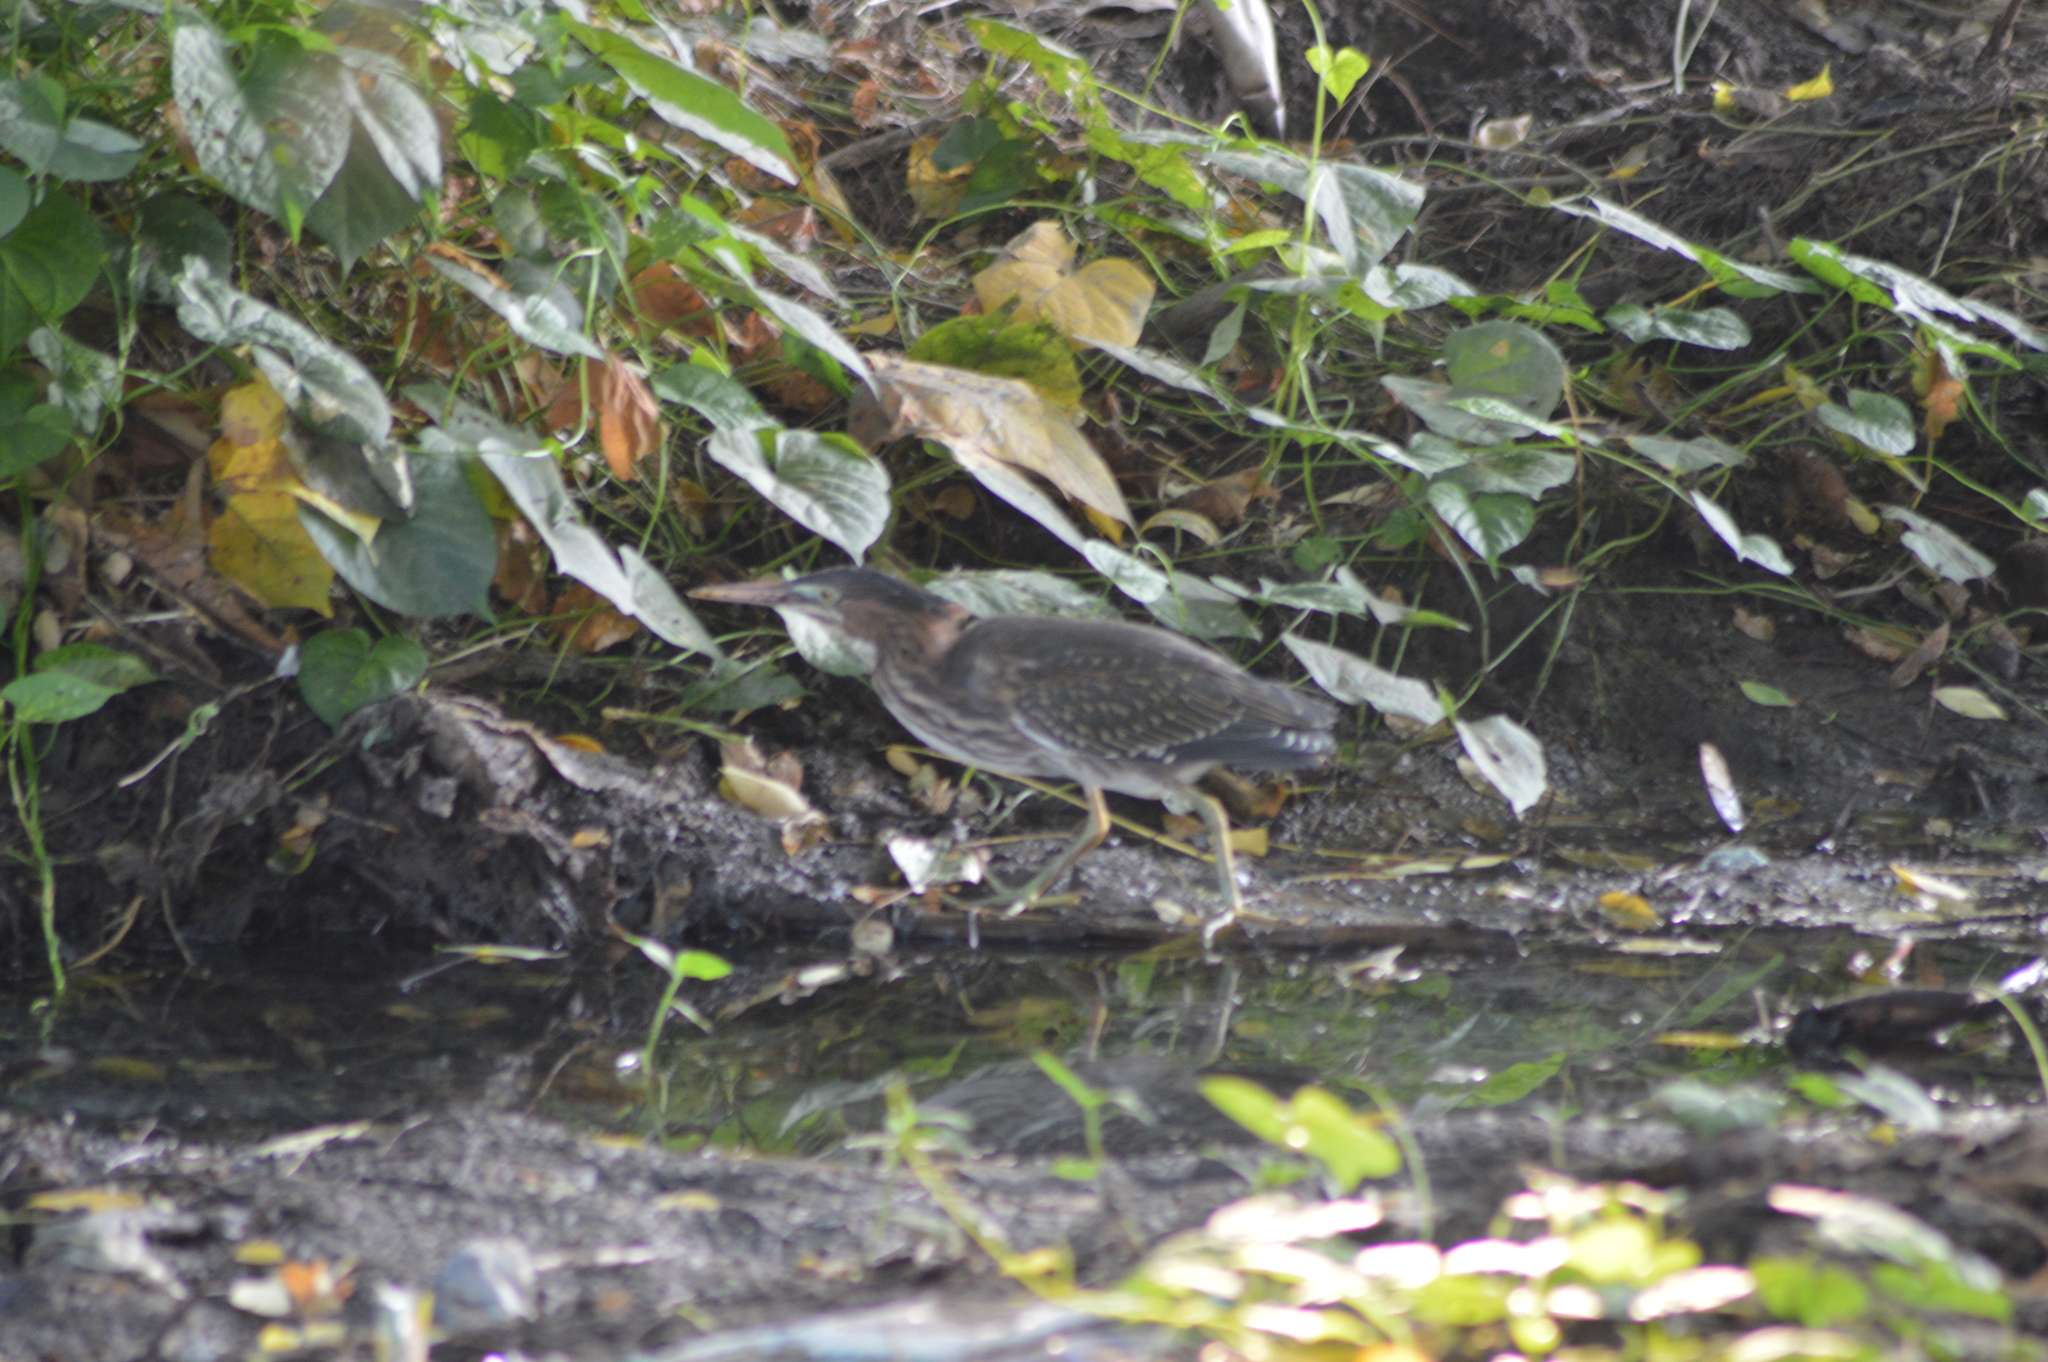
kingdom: Animalia
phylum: Chordata
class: Aves
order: Pelecaniformes
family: Ardeidae
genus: Butorides
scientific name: Butorides virescens
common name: Green heron
